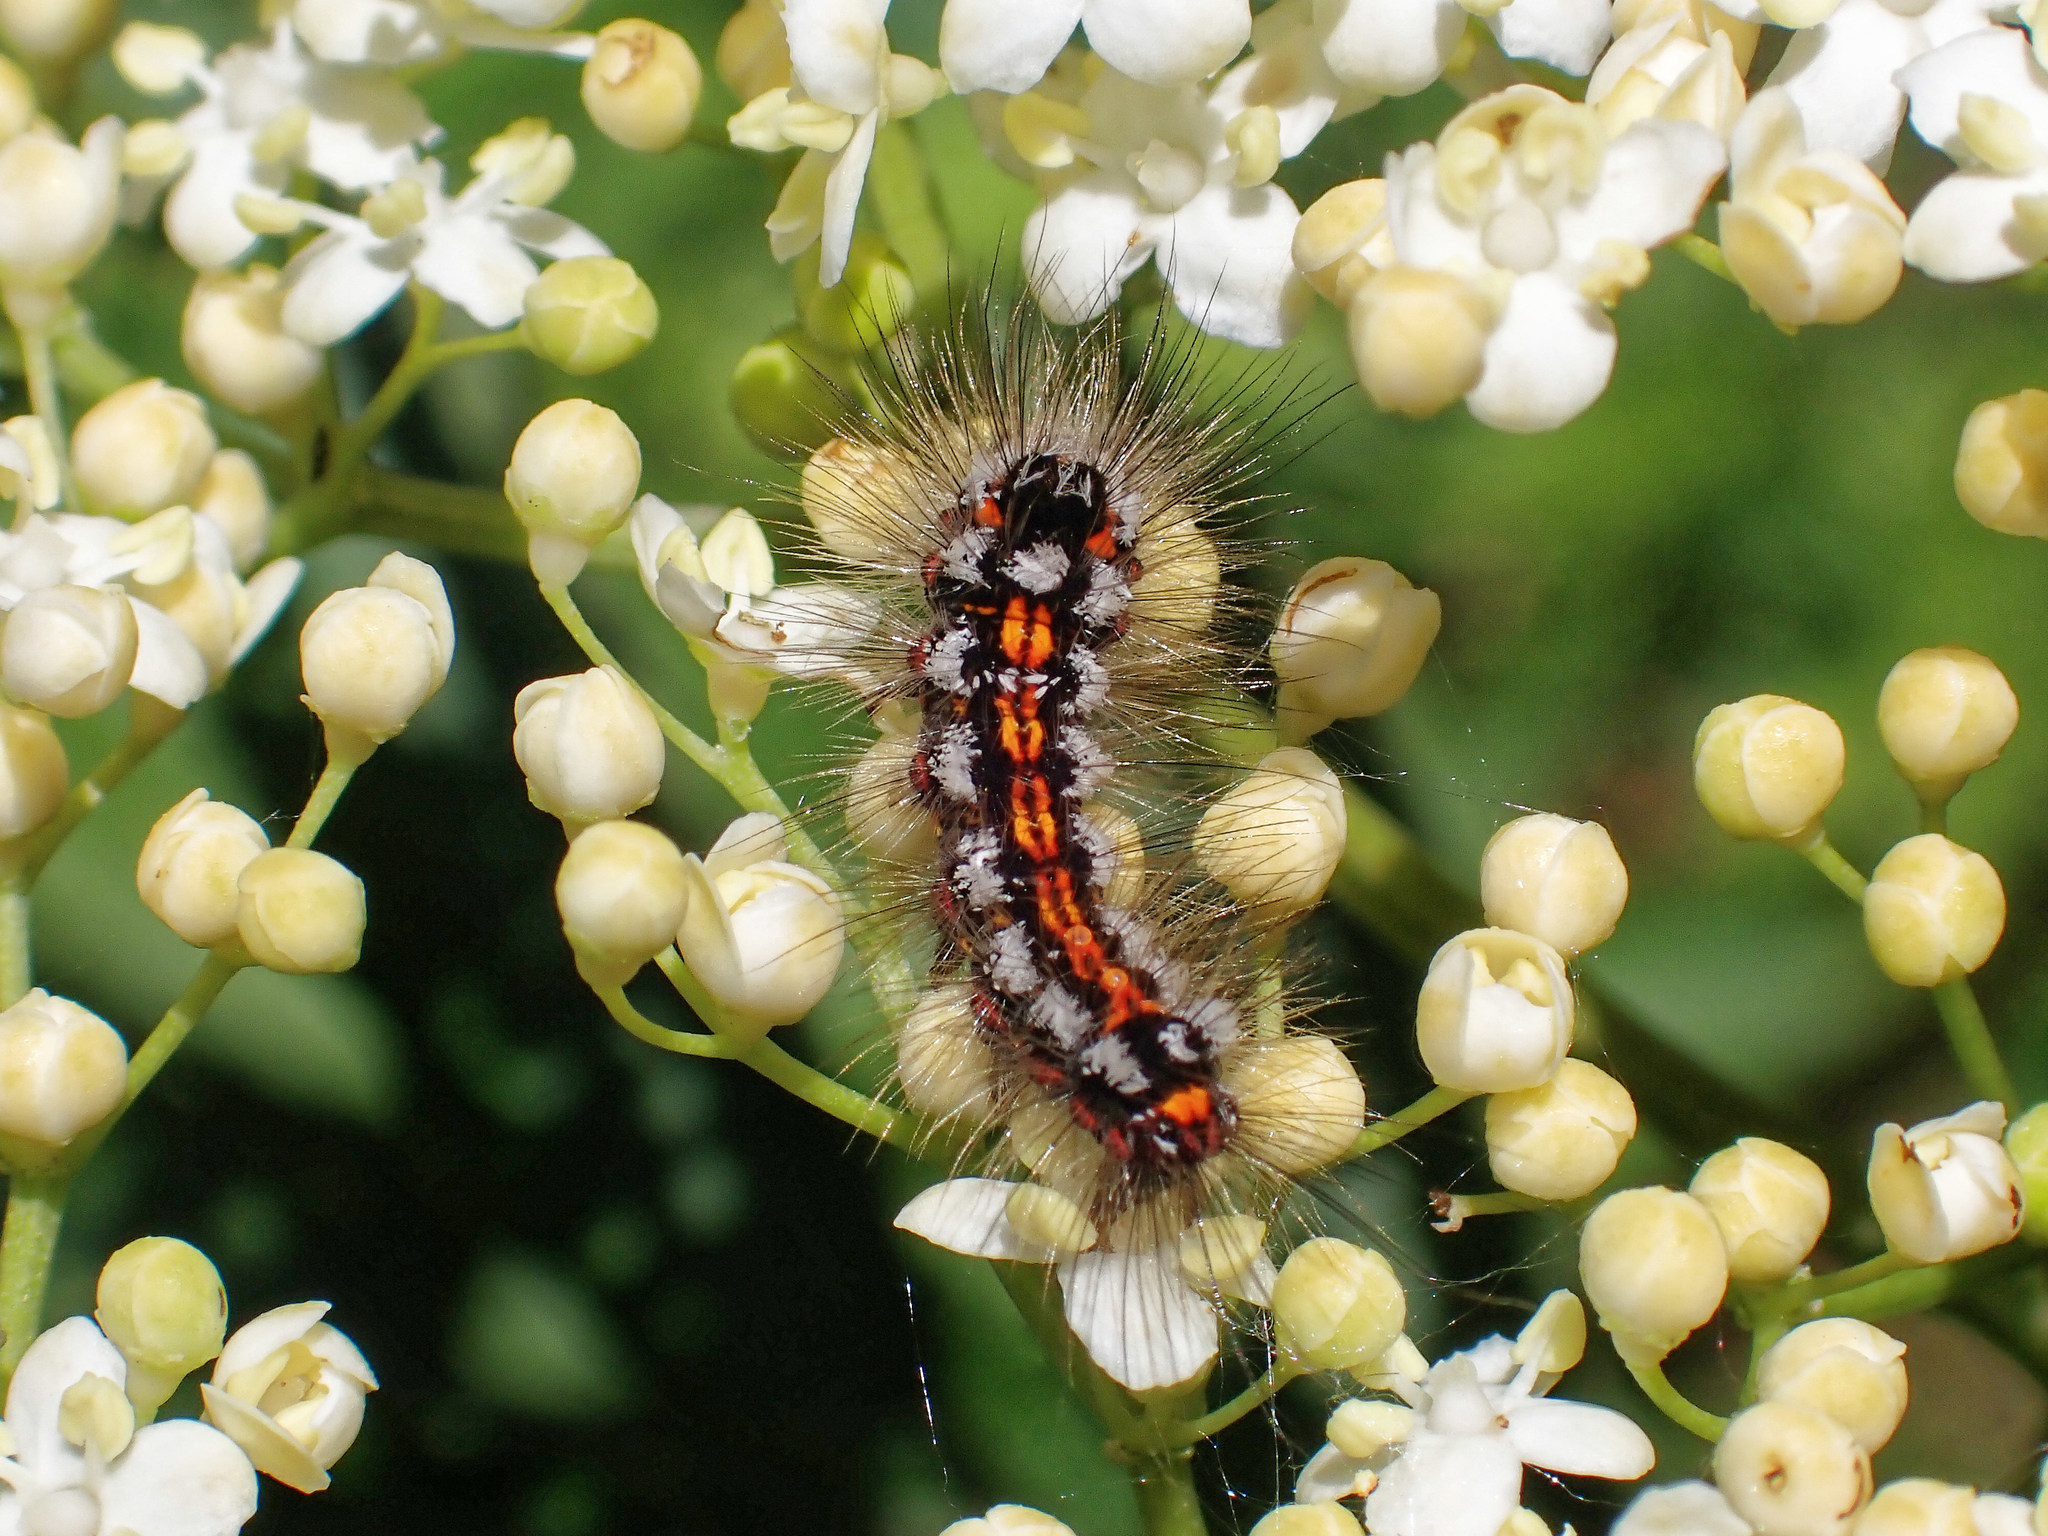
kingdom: Animalia
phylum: Arthropoda
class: Insecta
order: Lepidoptera
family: Erebidae
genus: Sphrageidus
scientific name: Sphrageidus similis
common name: Yellow-tail
